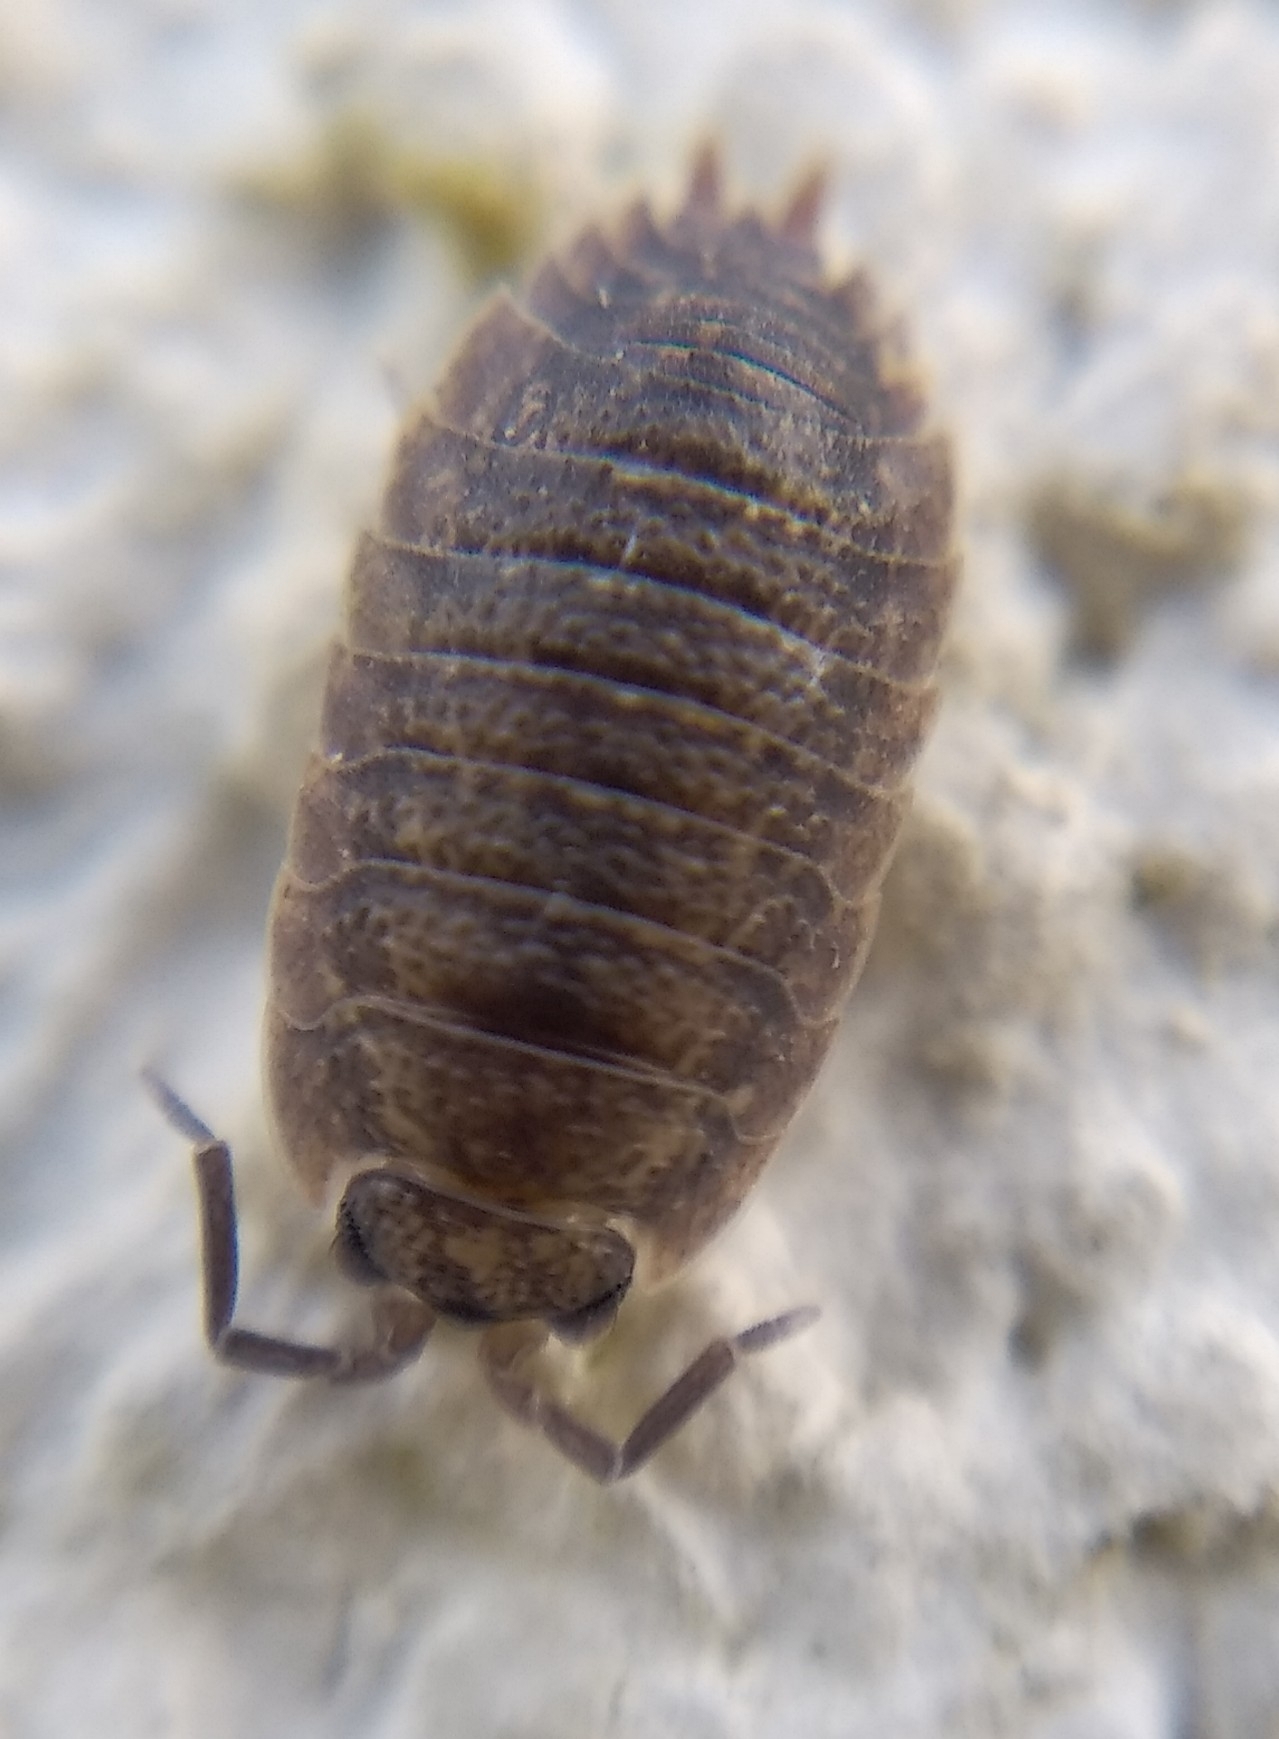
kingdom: Animalia
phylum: Arthropoda
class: Malacostraca
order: Isopoda
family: Porcellionidae
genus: Porcellio
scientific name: Porcellio scaber
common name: Common rough woodlouse
